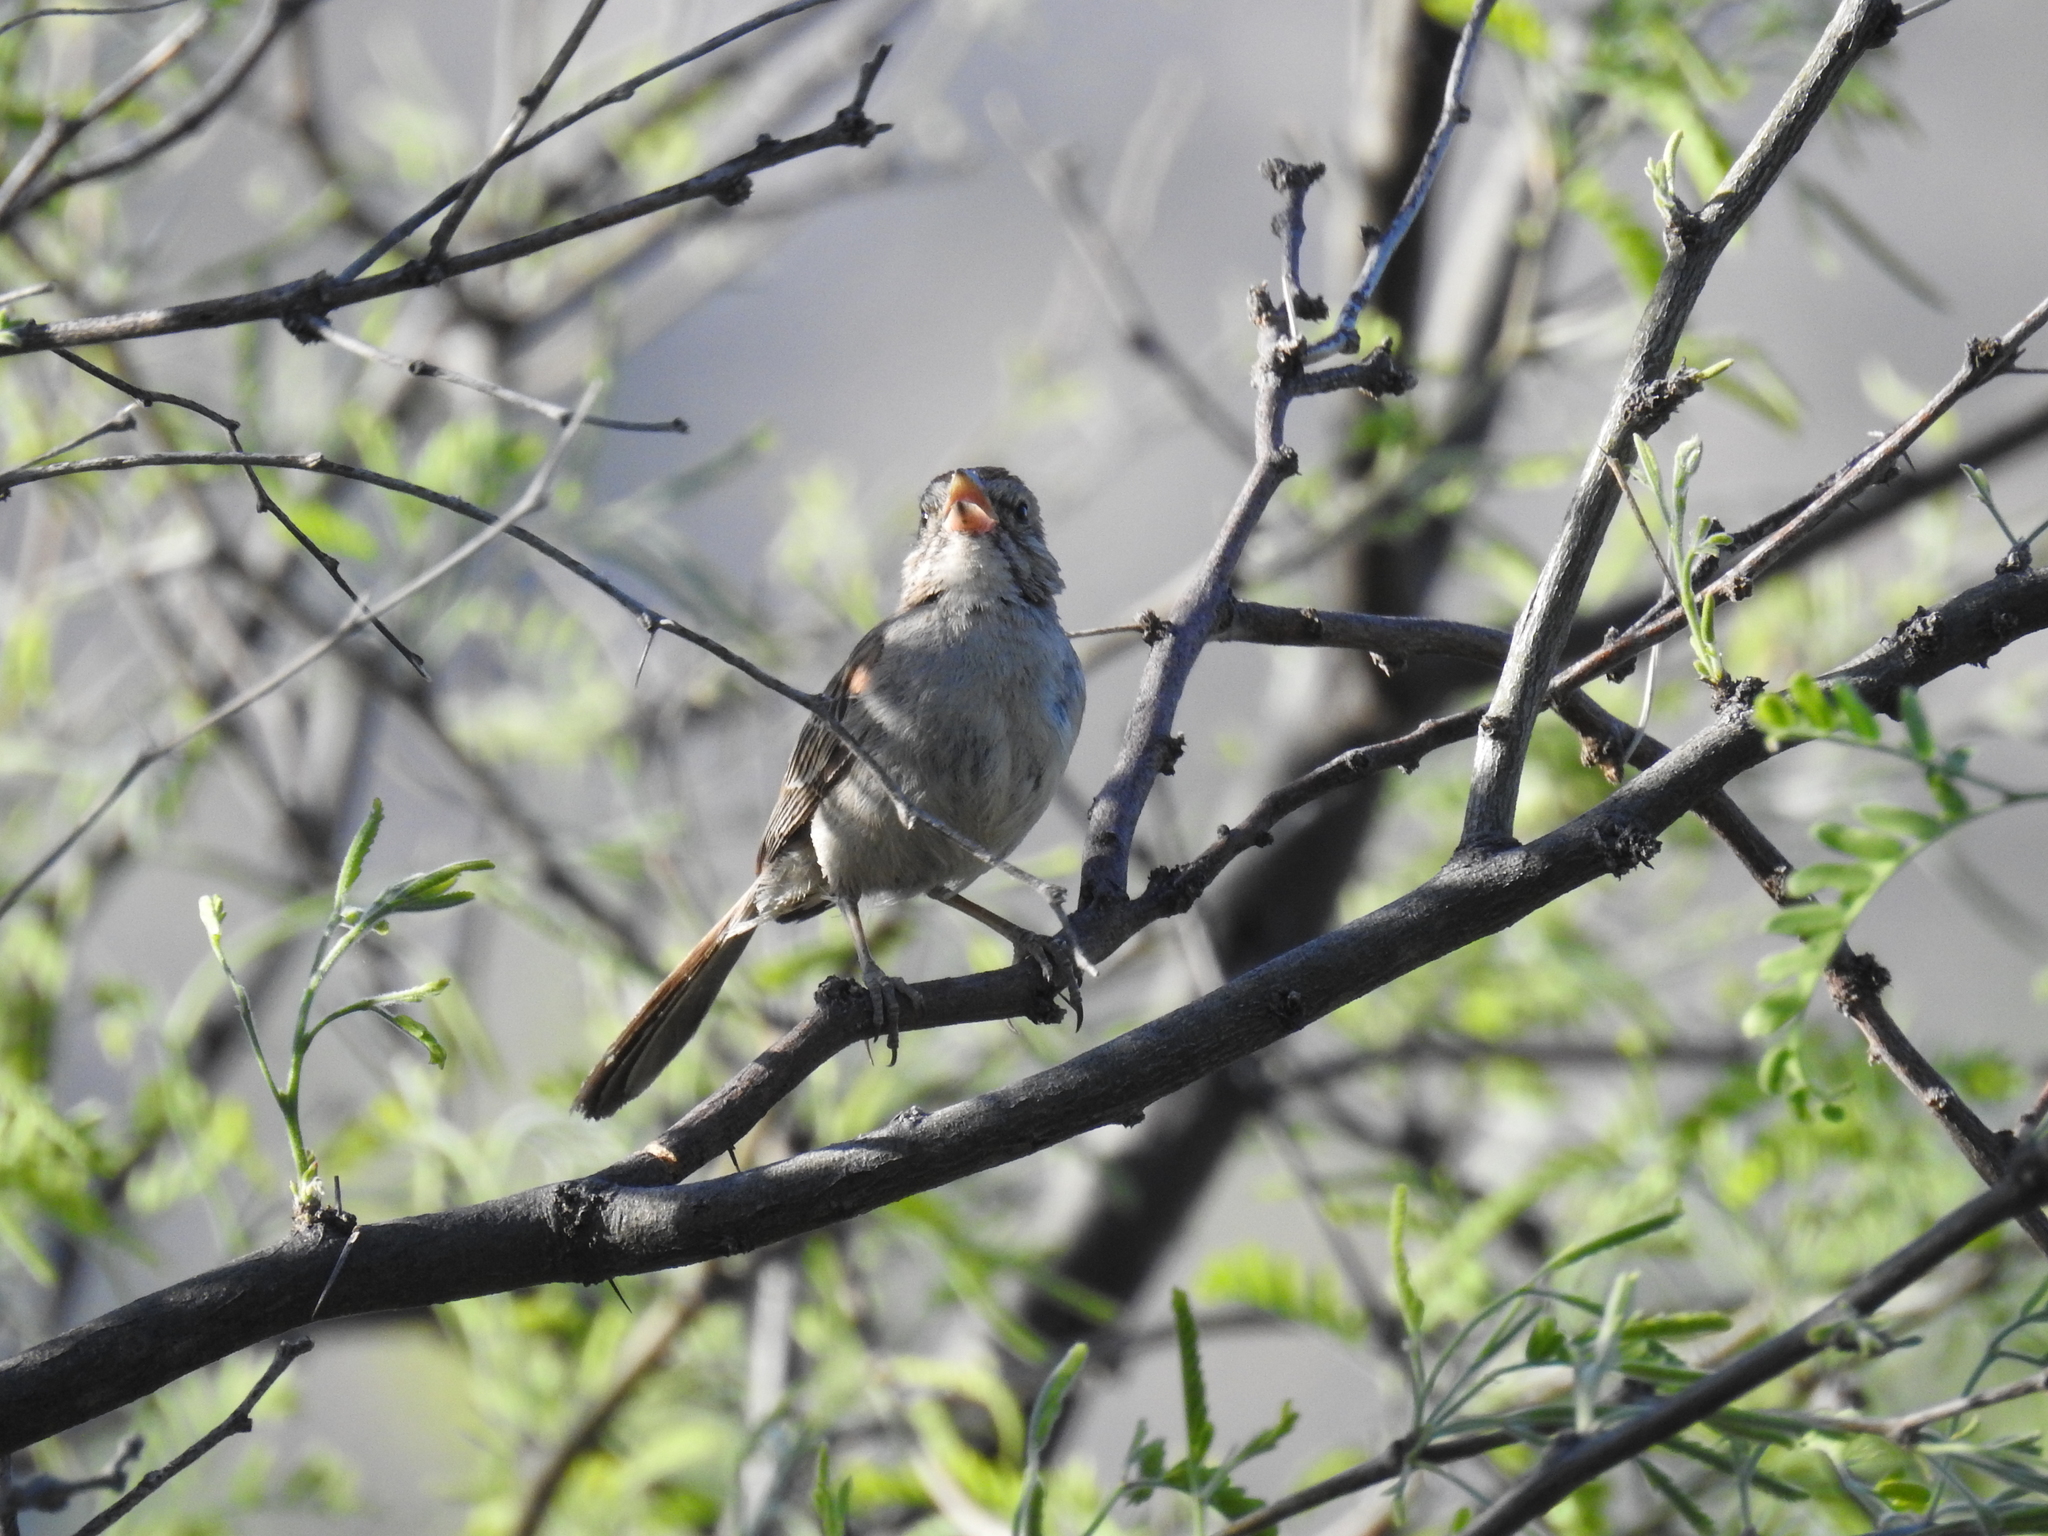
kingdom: Animalia
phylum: Chordata
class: Aves
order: Passeriformes
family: Passerellidae
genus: Peucaea
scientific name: Peucaea carpalis
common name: Rufous-winged sparrow
